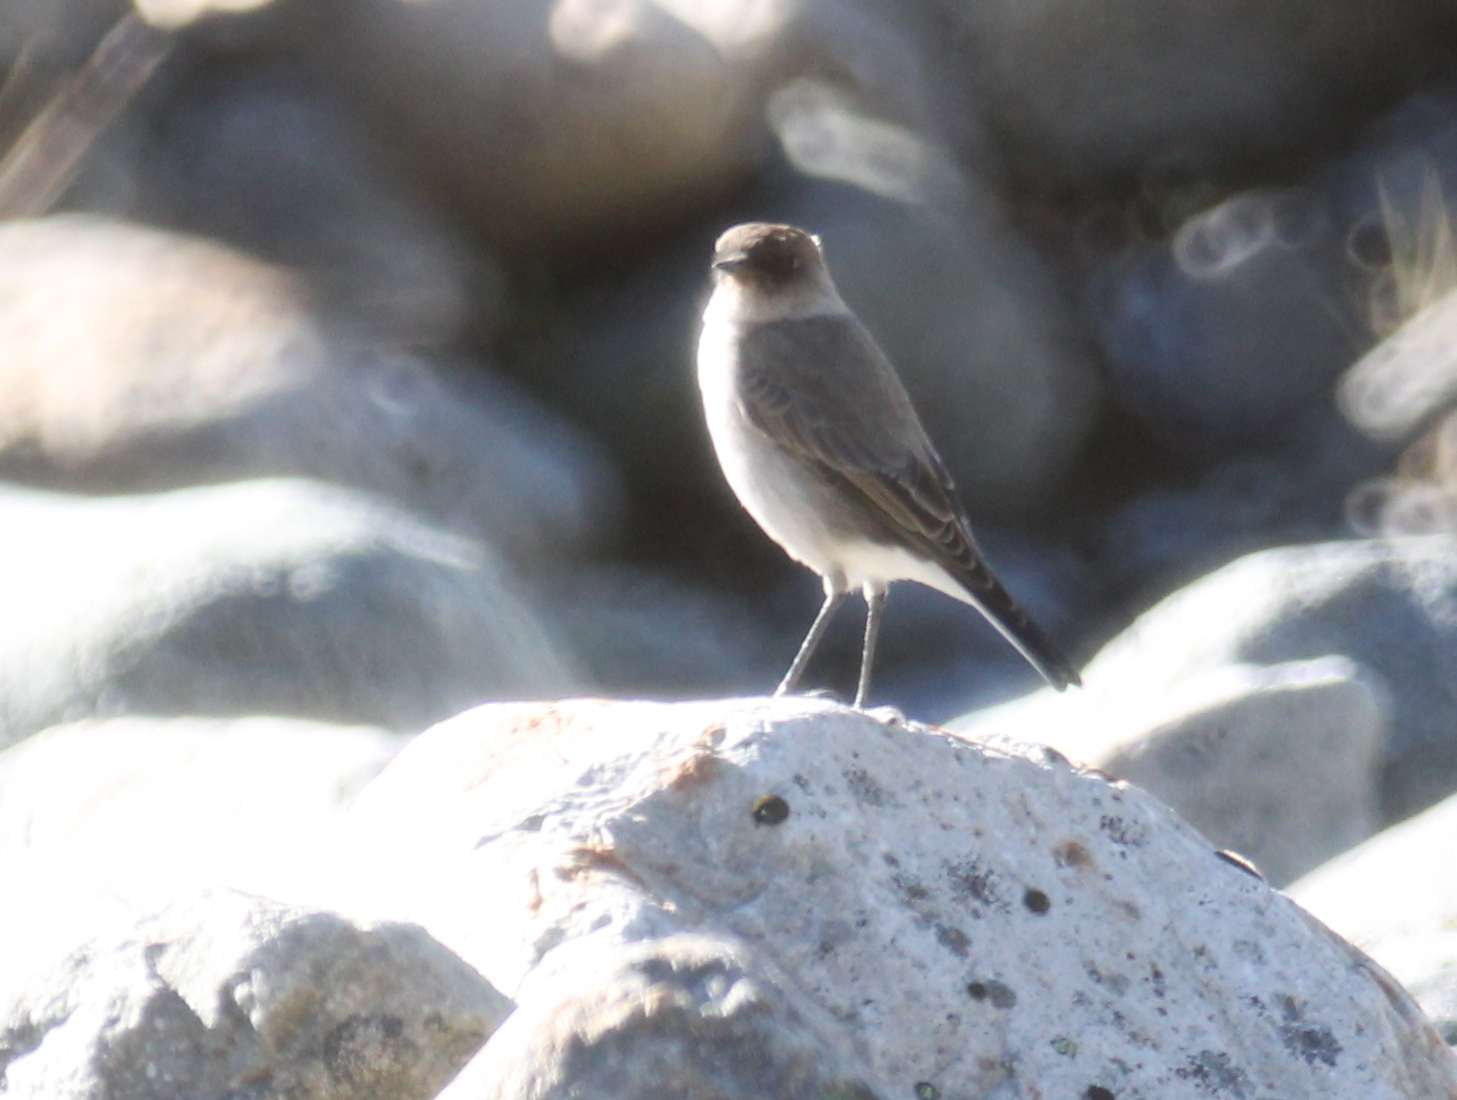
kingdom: Animalia
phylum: Chordata
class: Aves
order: Passeriformes
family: Tyrannidae
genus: Muscisaxicola
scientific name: Muscisaxicola maclovianus
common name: Dark-faced ground tyrant
